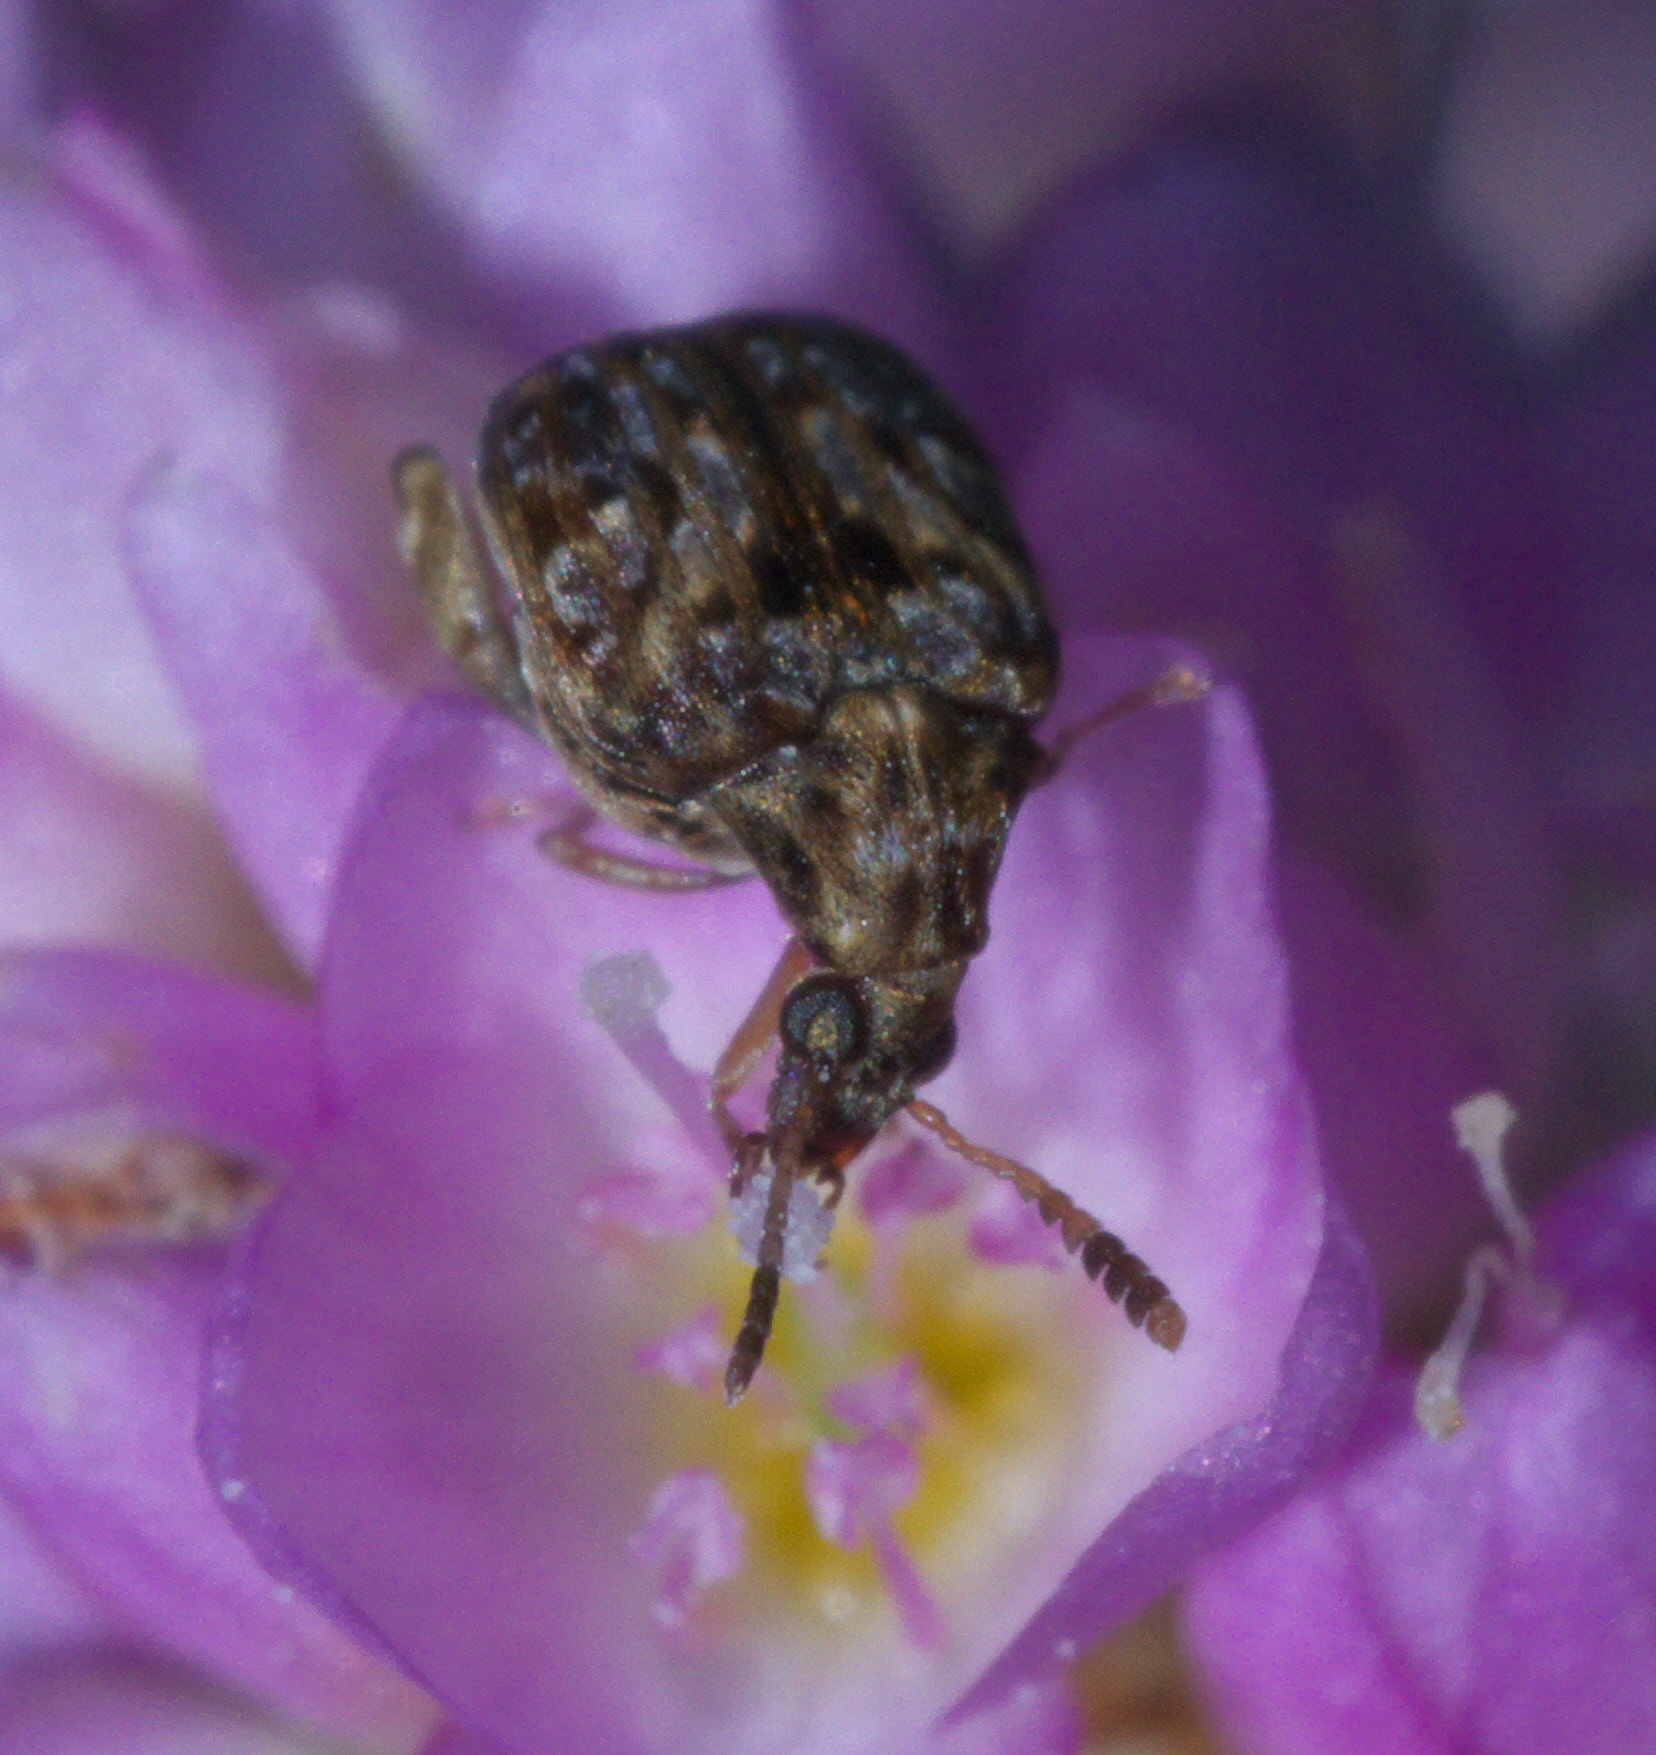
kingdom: Animalia
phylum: Arthropoda
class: Insecta
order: Coleoptera
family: Chrysomelidae
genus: Gibbobruchus
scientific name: Gibbobruchus mimus
